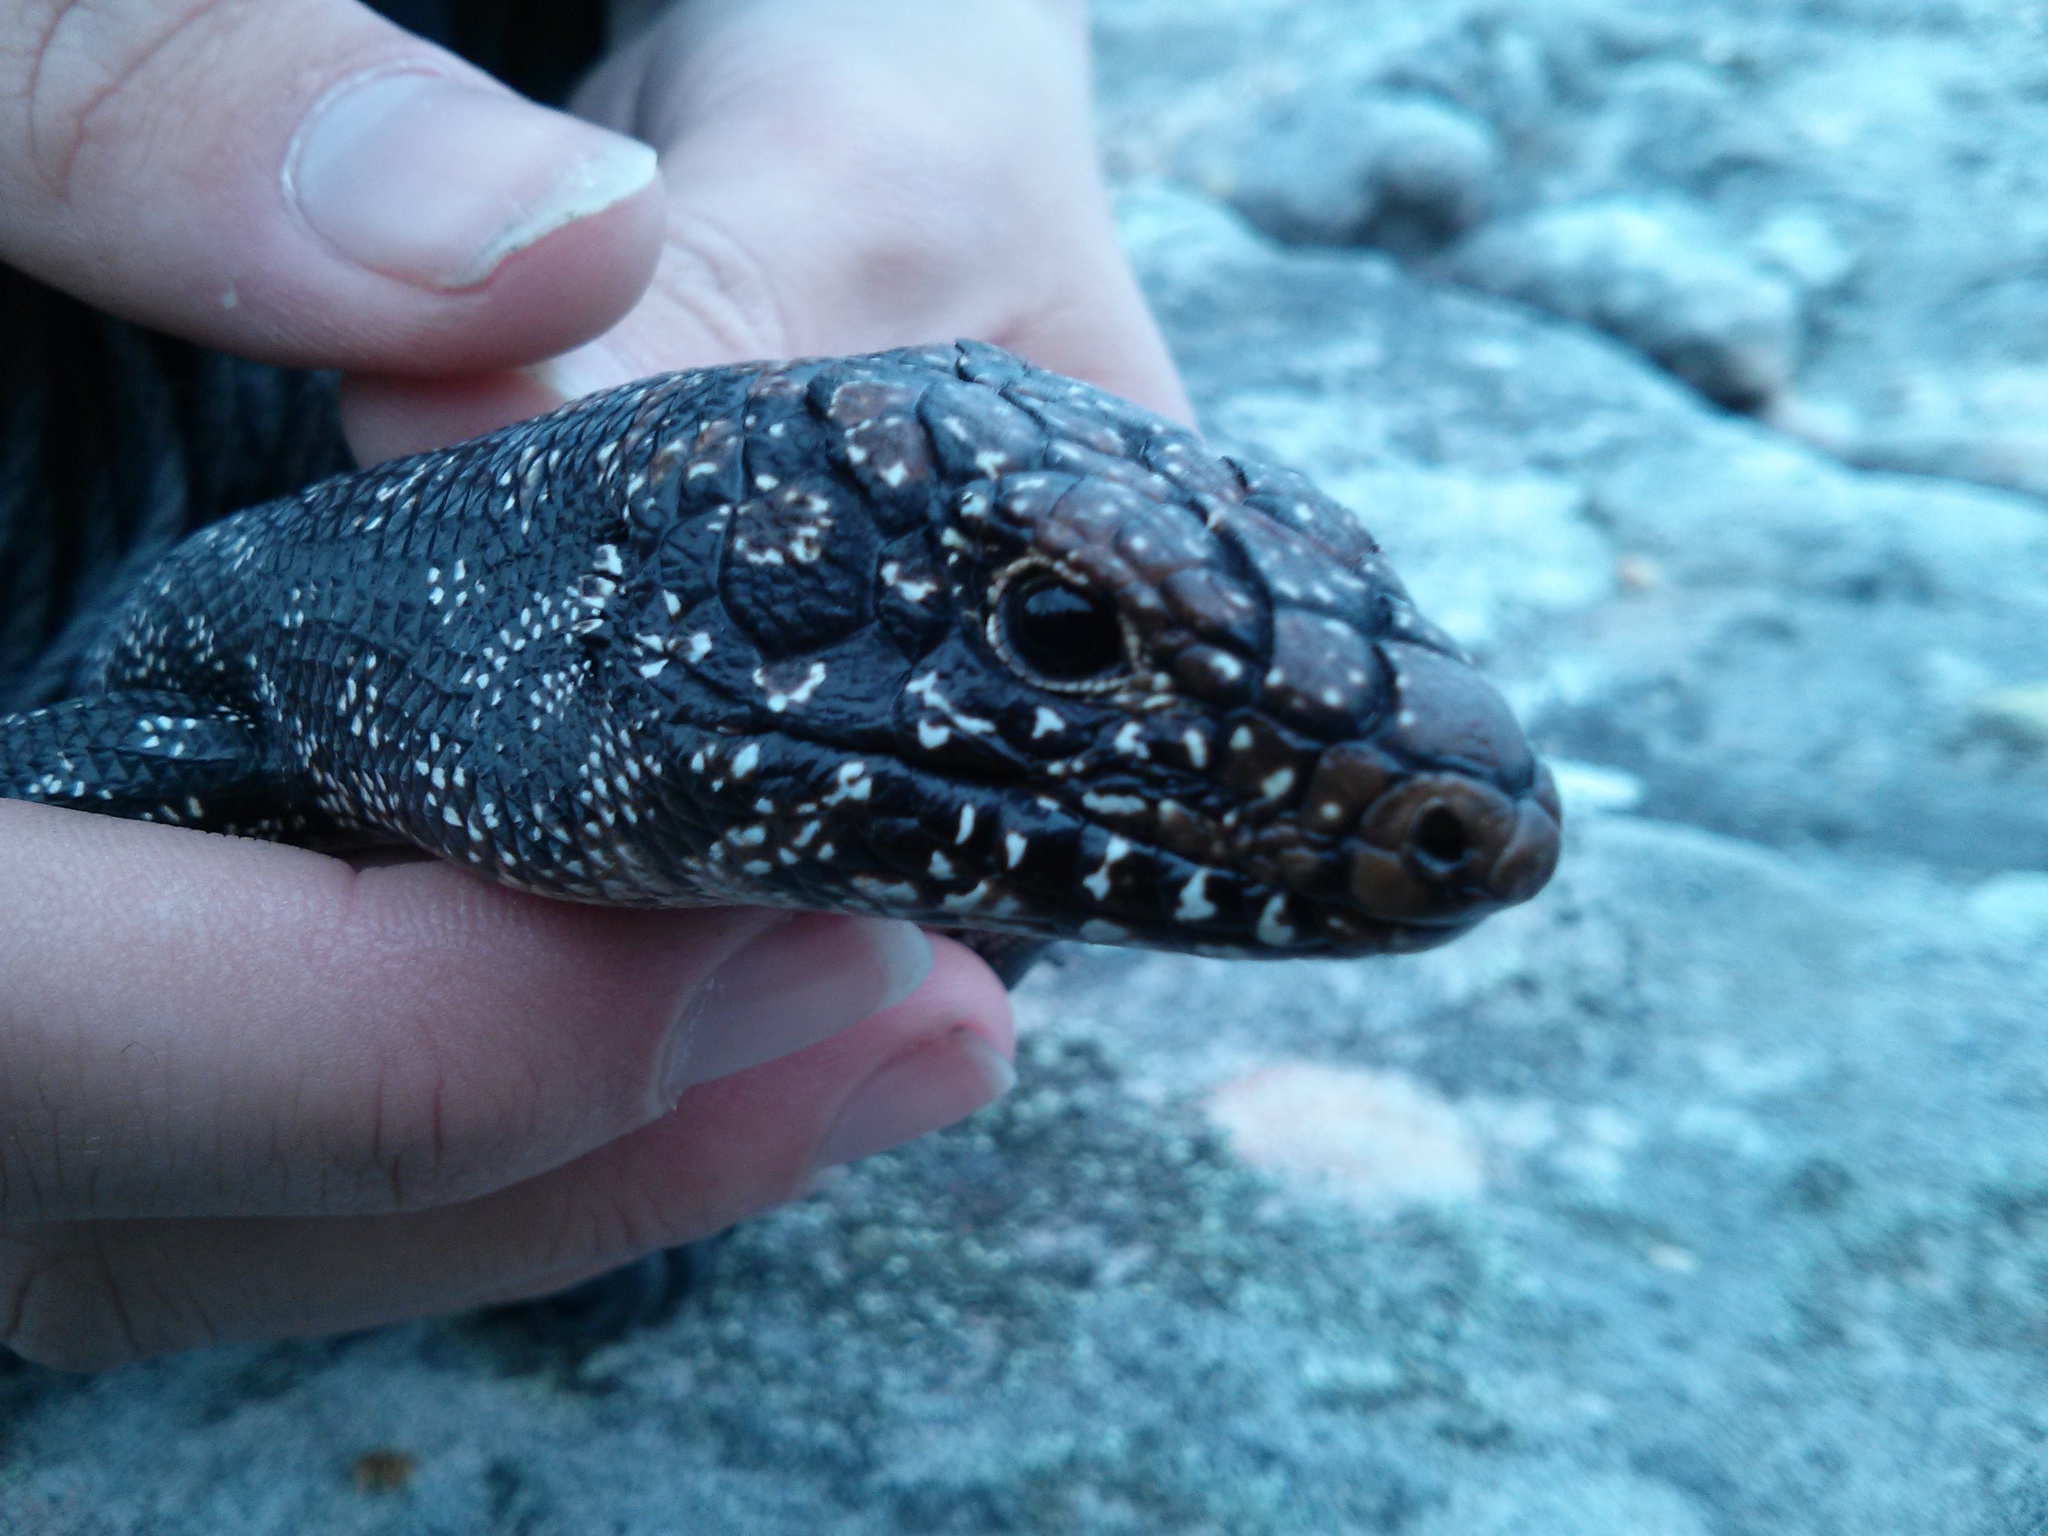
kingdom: Animalia
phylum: Chordata
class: Squamata
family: Scincidae
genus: Egernia
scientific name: Egernia cunninghami
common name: Cunningham's skink
